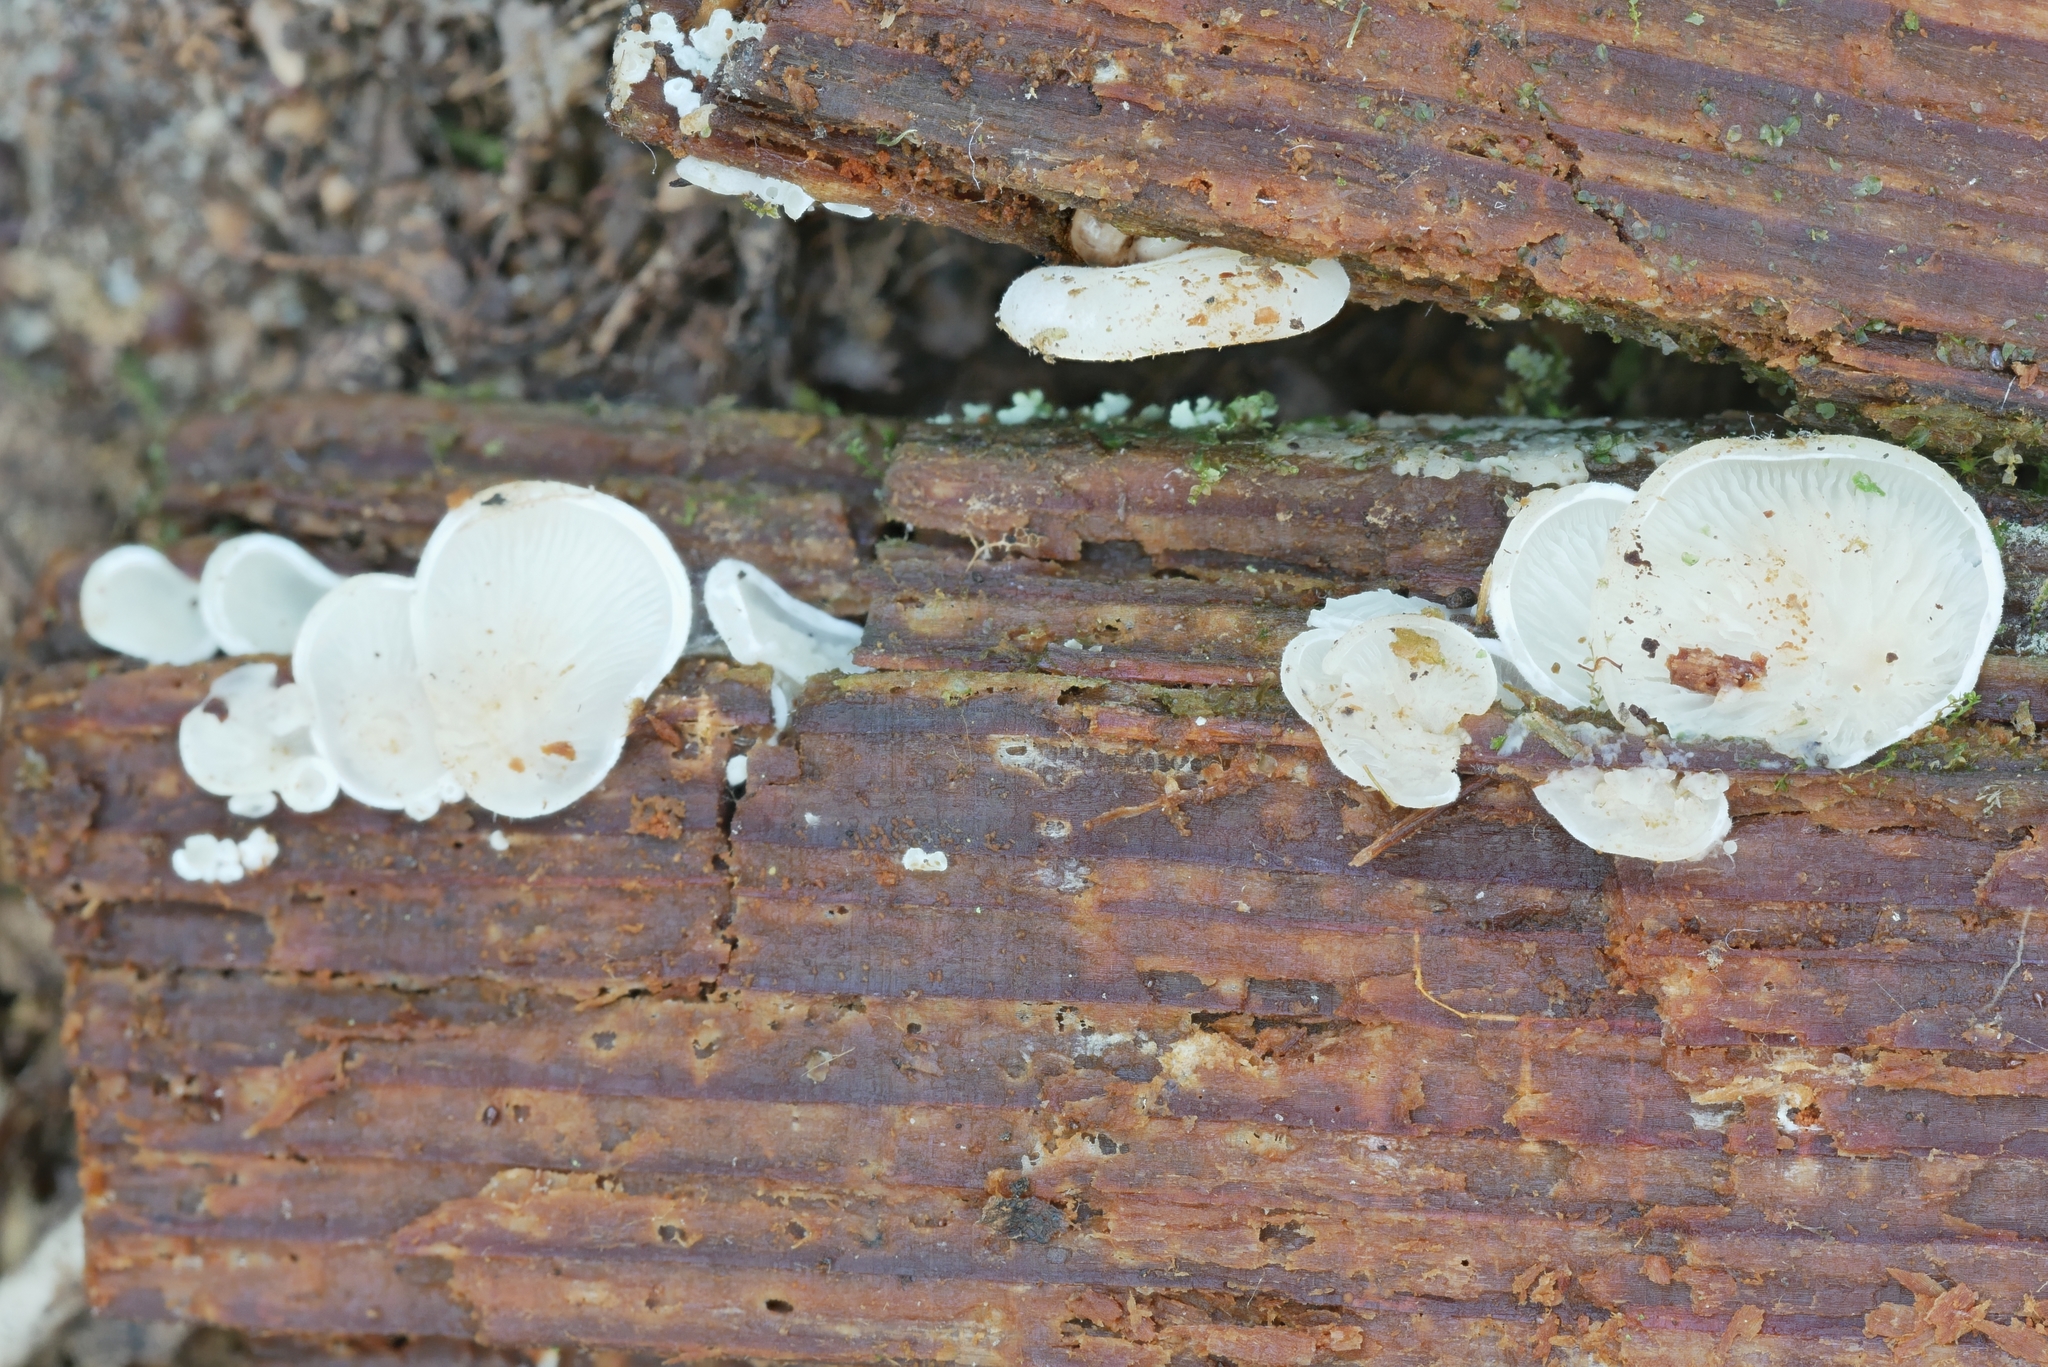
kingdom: Fungi
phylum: Basidiomycota
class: Agaricomycetes
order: Agaricales
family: Marasmiaceae
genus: Pleurocybella
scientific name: Pleurocybella porrigens
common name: Angel's wings
